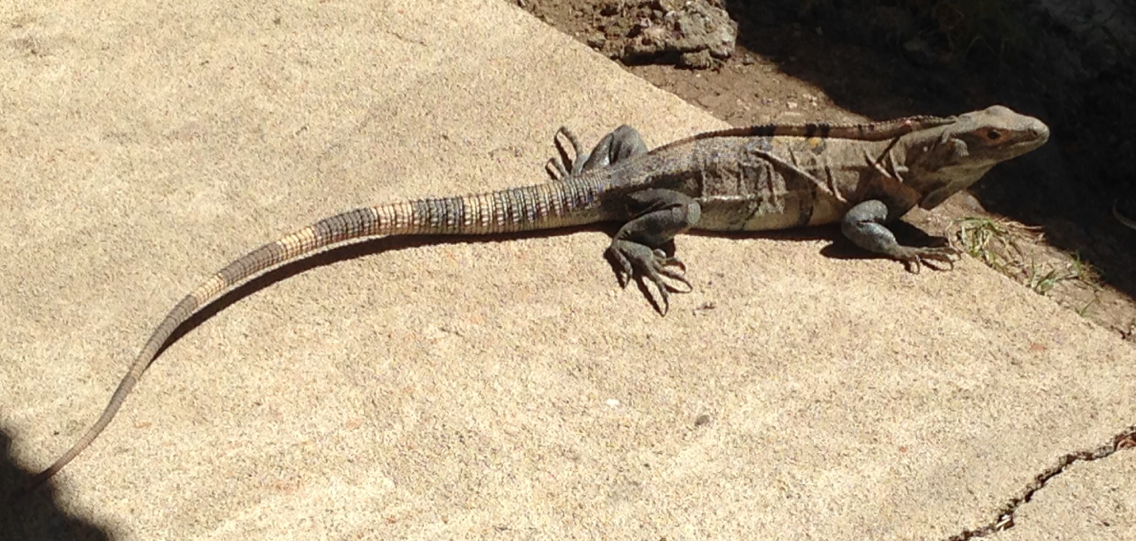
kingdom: Animalia
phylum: Chordata
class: Squamata
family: Iguanidae
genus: Ctenosaura
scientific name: Ctenosaura similis
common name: Black spiny-tailed iguana
